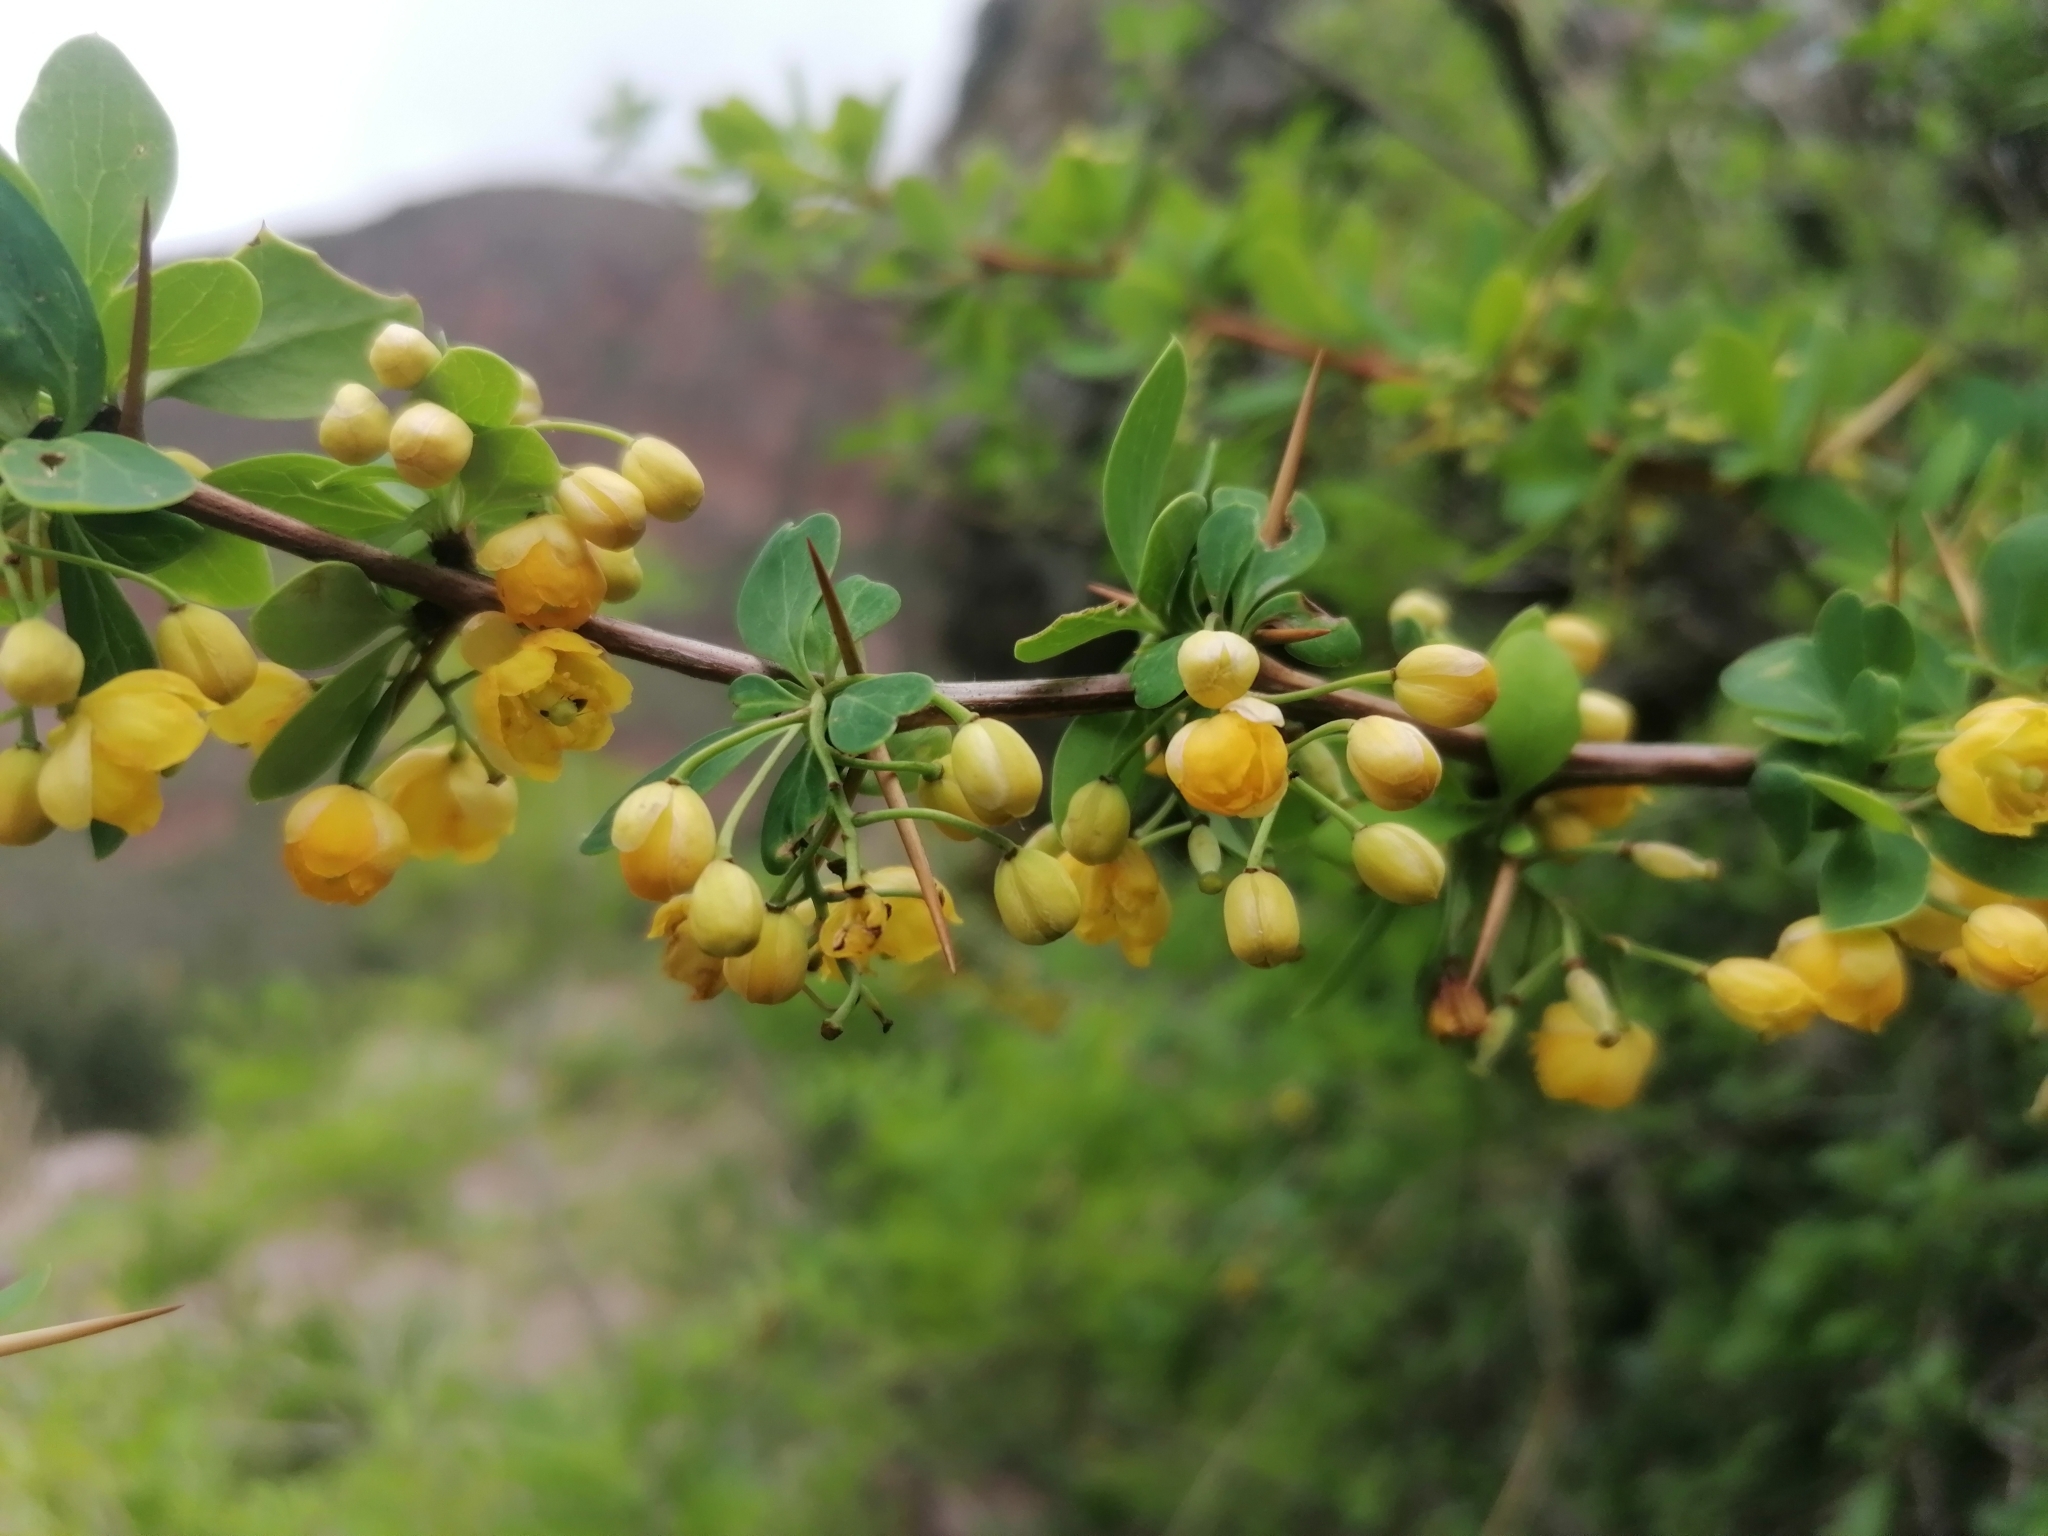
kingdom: Plantae
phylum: Tracheophyta
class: Magnoliopsida
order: Ranunculales
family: Berberidaceae
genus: Berberis
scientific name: Berberis boliviana
